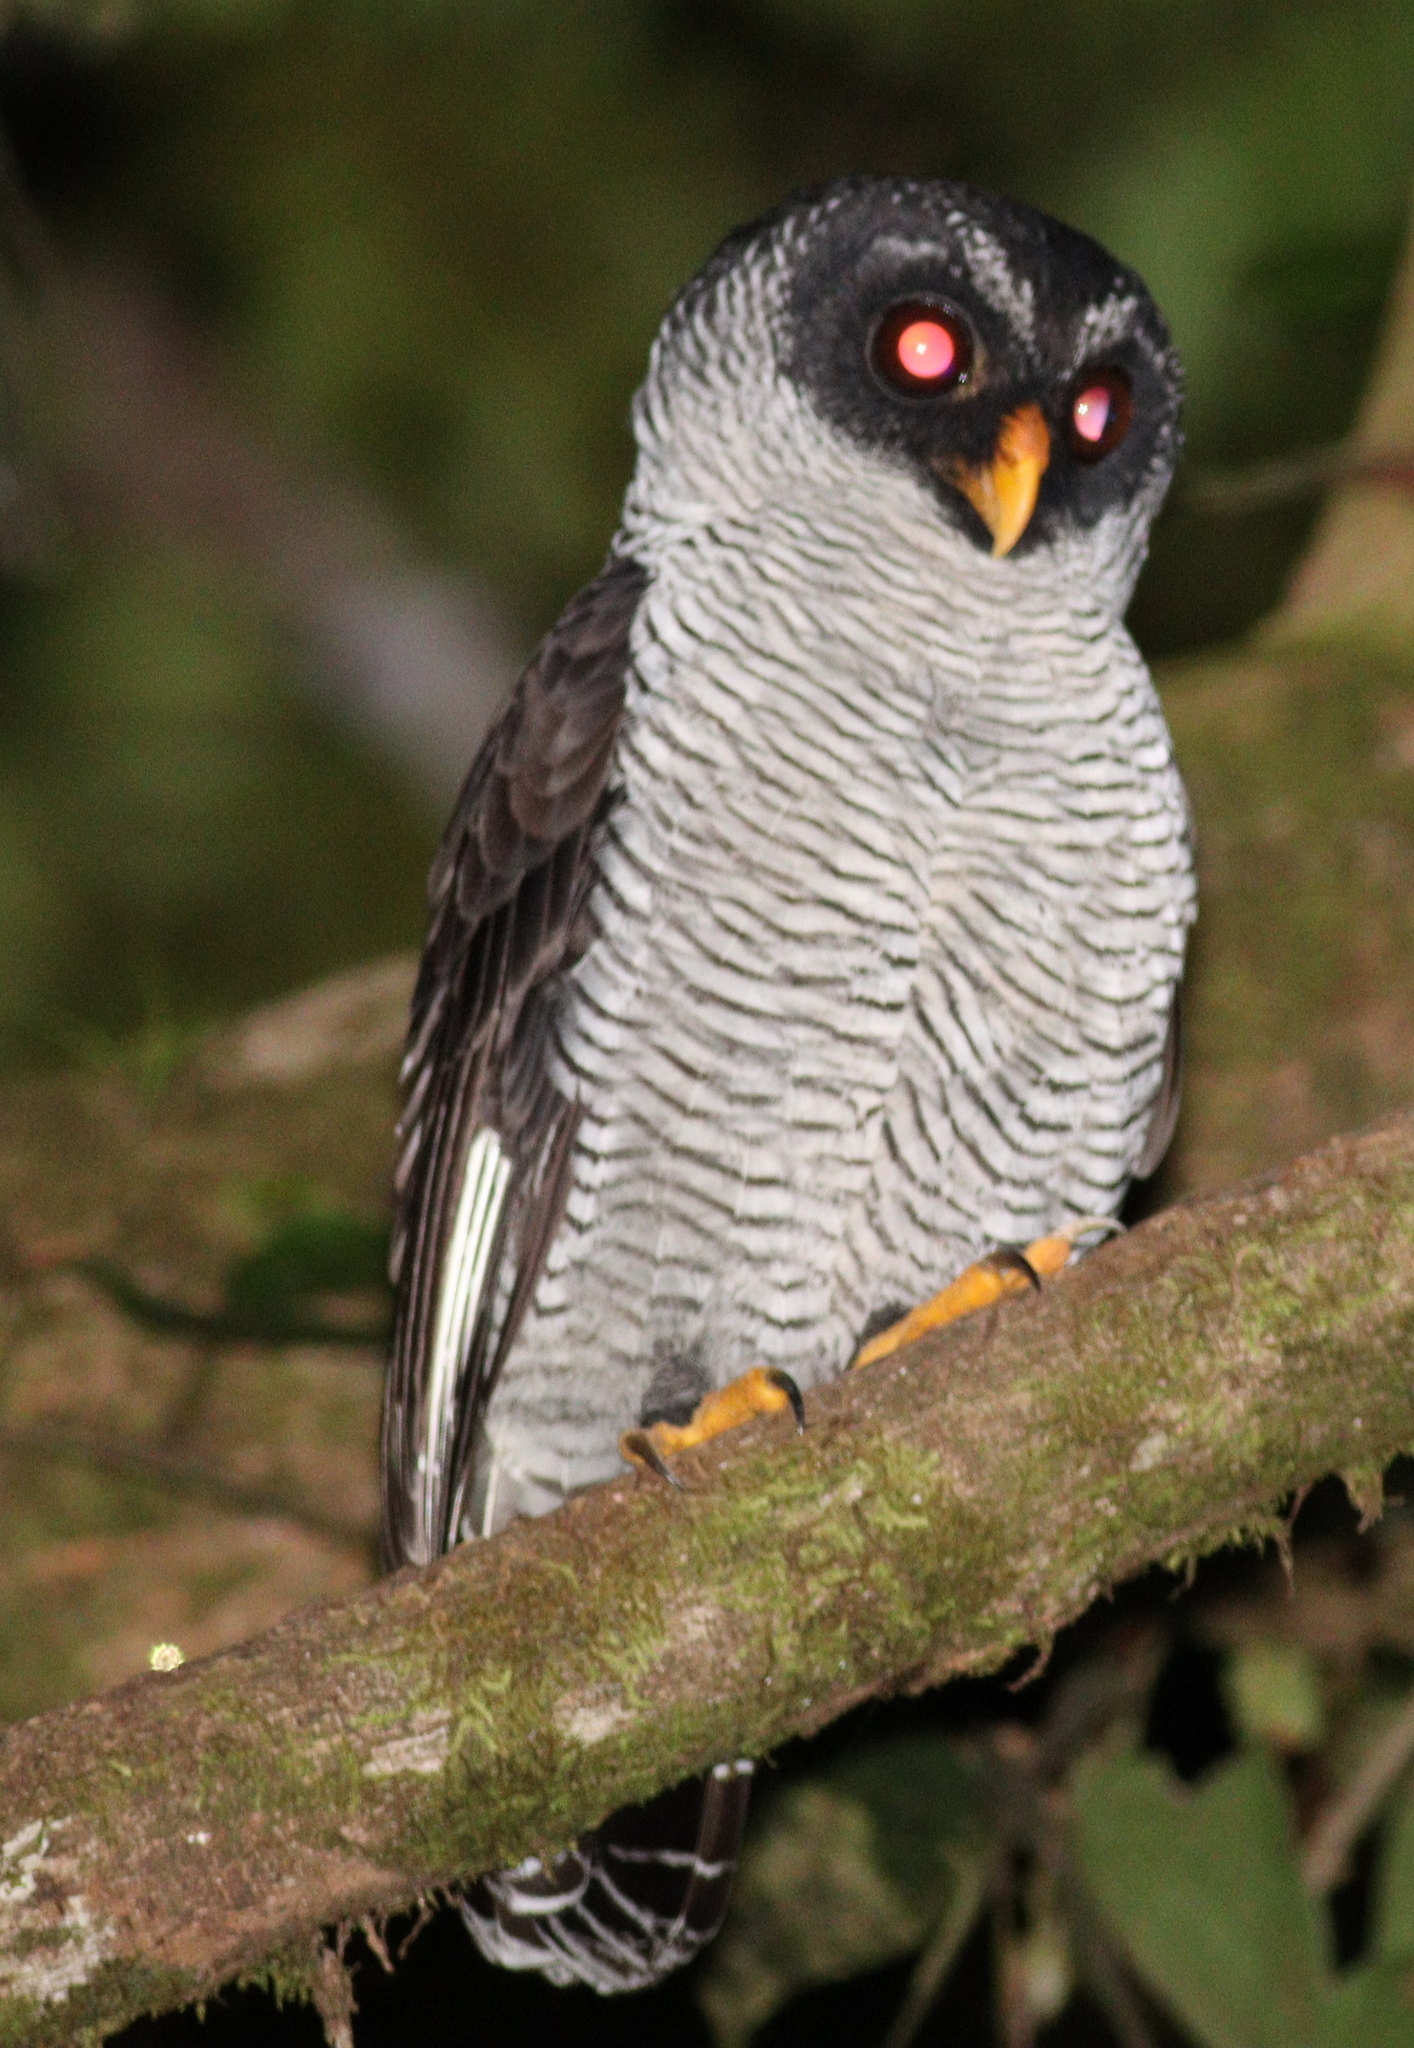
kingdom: Animalia
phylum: Chordata
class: Aves
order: Strigiformes
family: Strigidae
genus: Strix
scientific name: Strix nigrolineata
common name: Black-and-white owl
